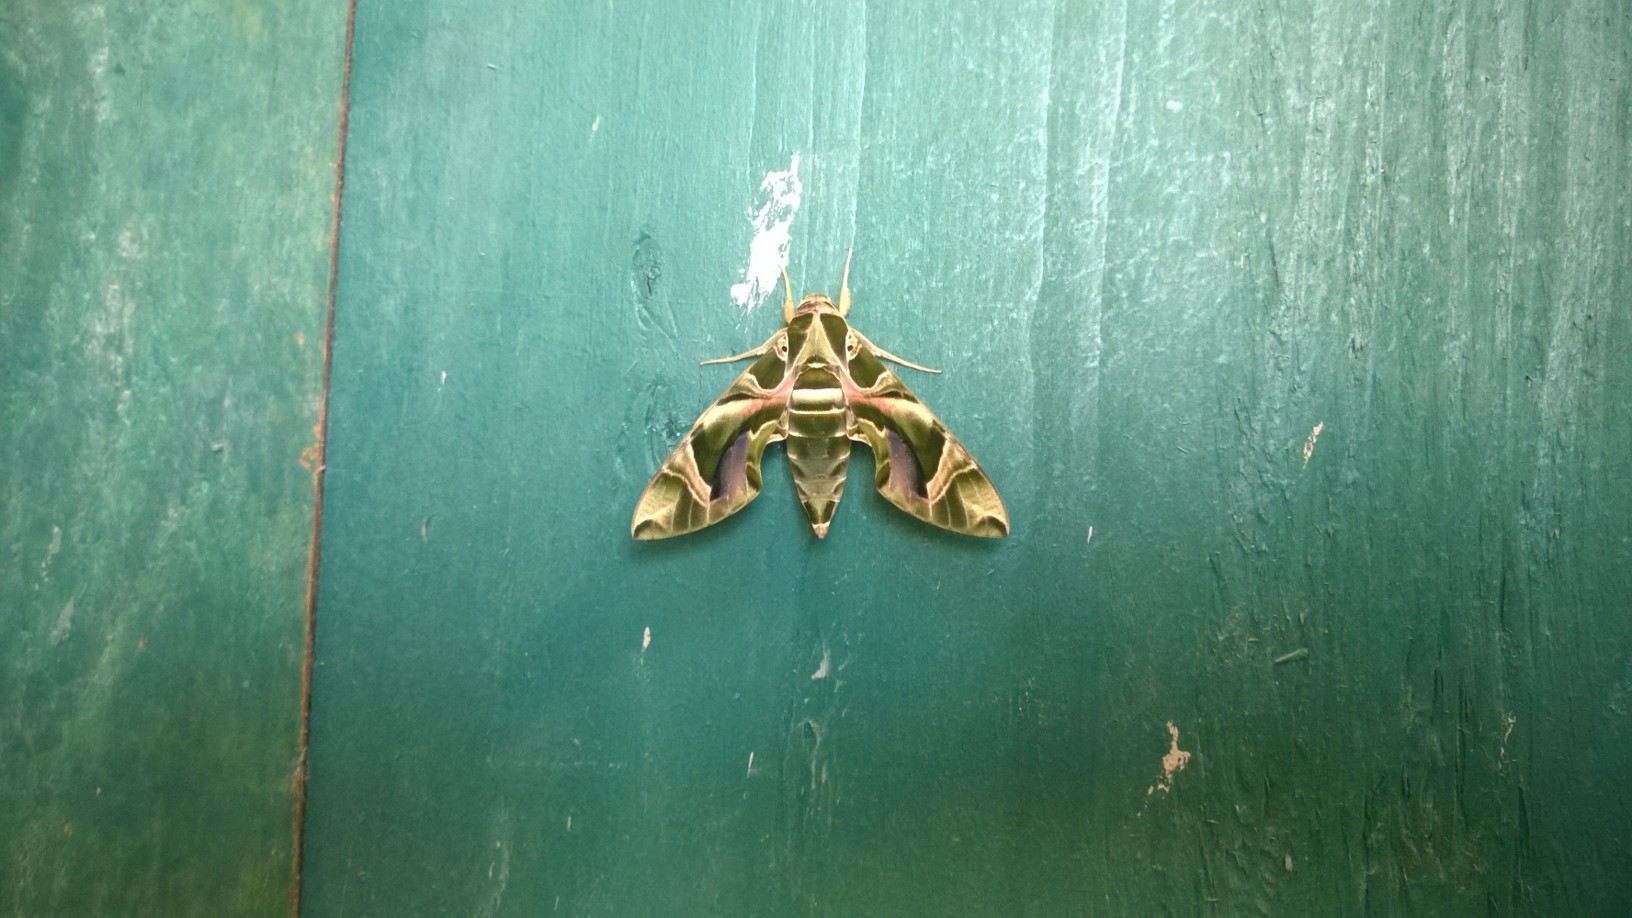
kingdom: Animalia
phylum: Arthropoda
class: Insecta
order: Lepidoptera
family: Sphingidae
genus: Daphnis
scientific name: Daphnis nerii
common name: Oleander hawk-moth
